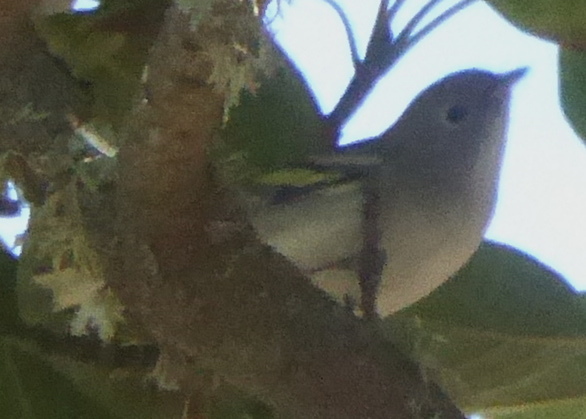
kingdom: Animalia
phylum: Chordata
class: Aves
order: Passeriformes
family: Parulidae
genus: Setophaga
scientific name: Setophaga pensylvanica
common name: Chestnut-sided warbler
